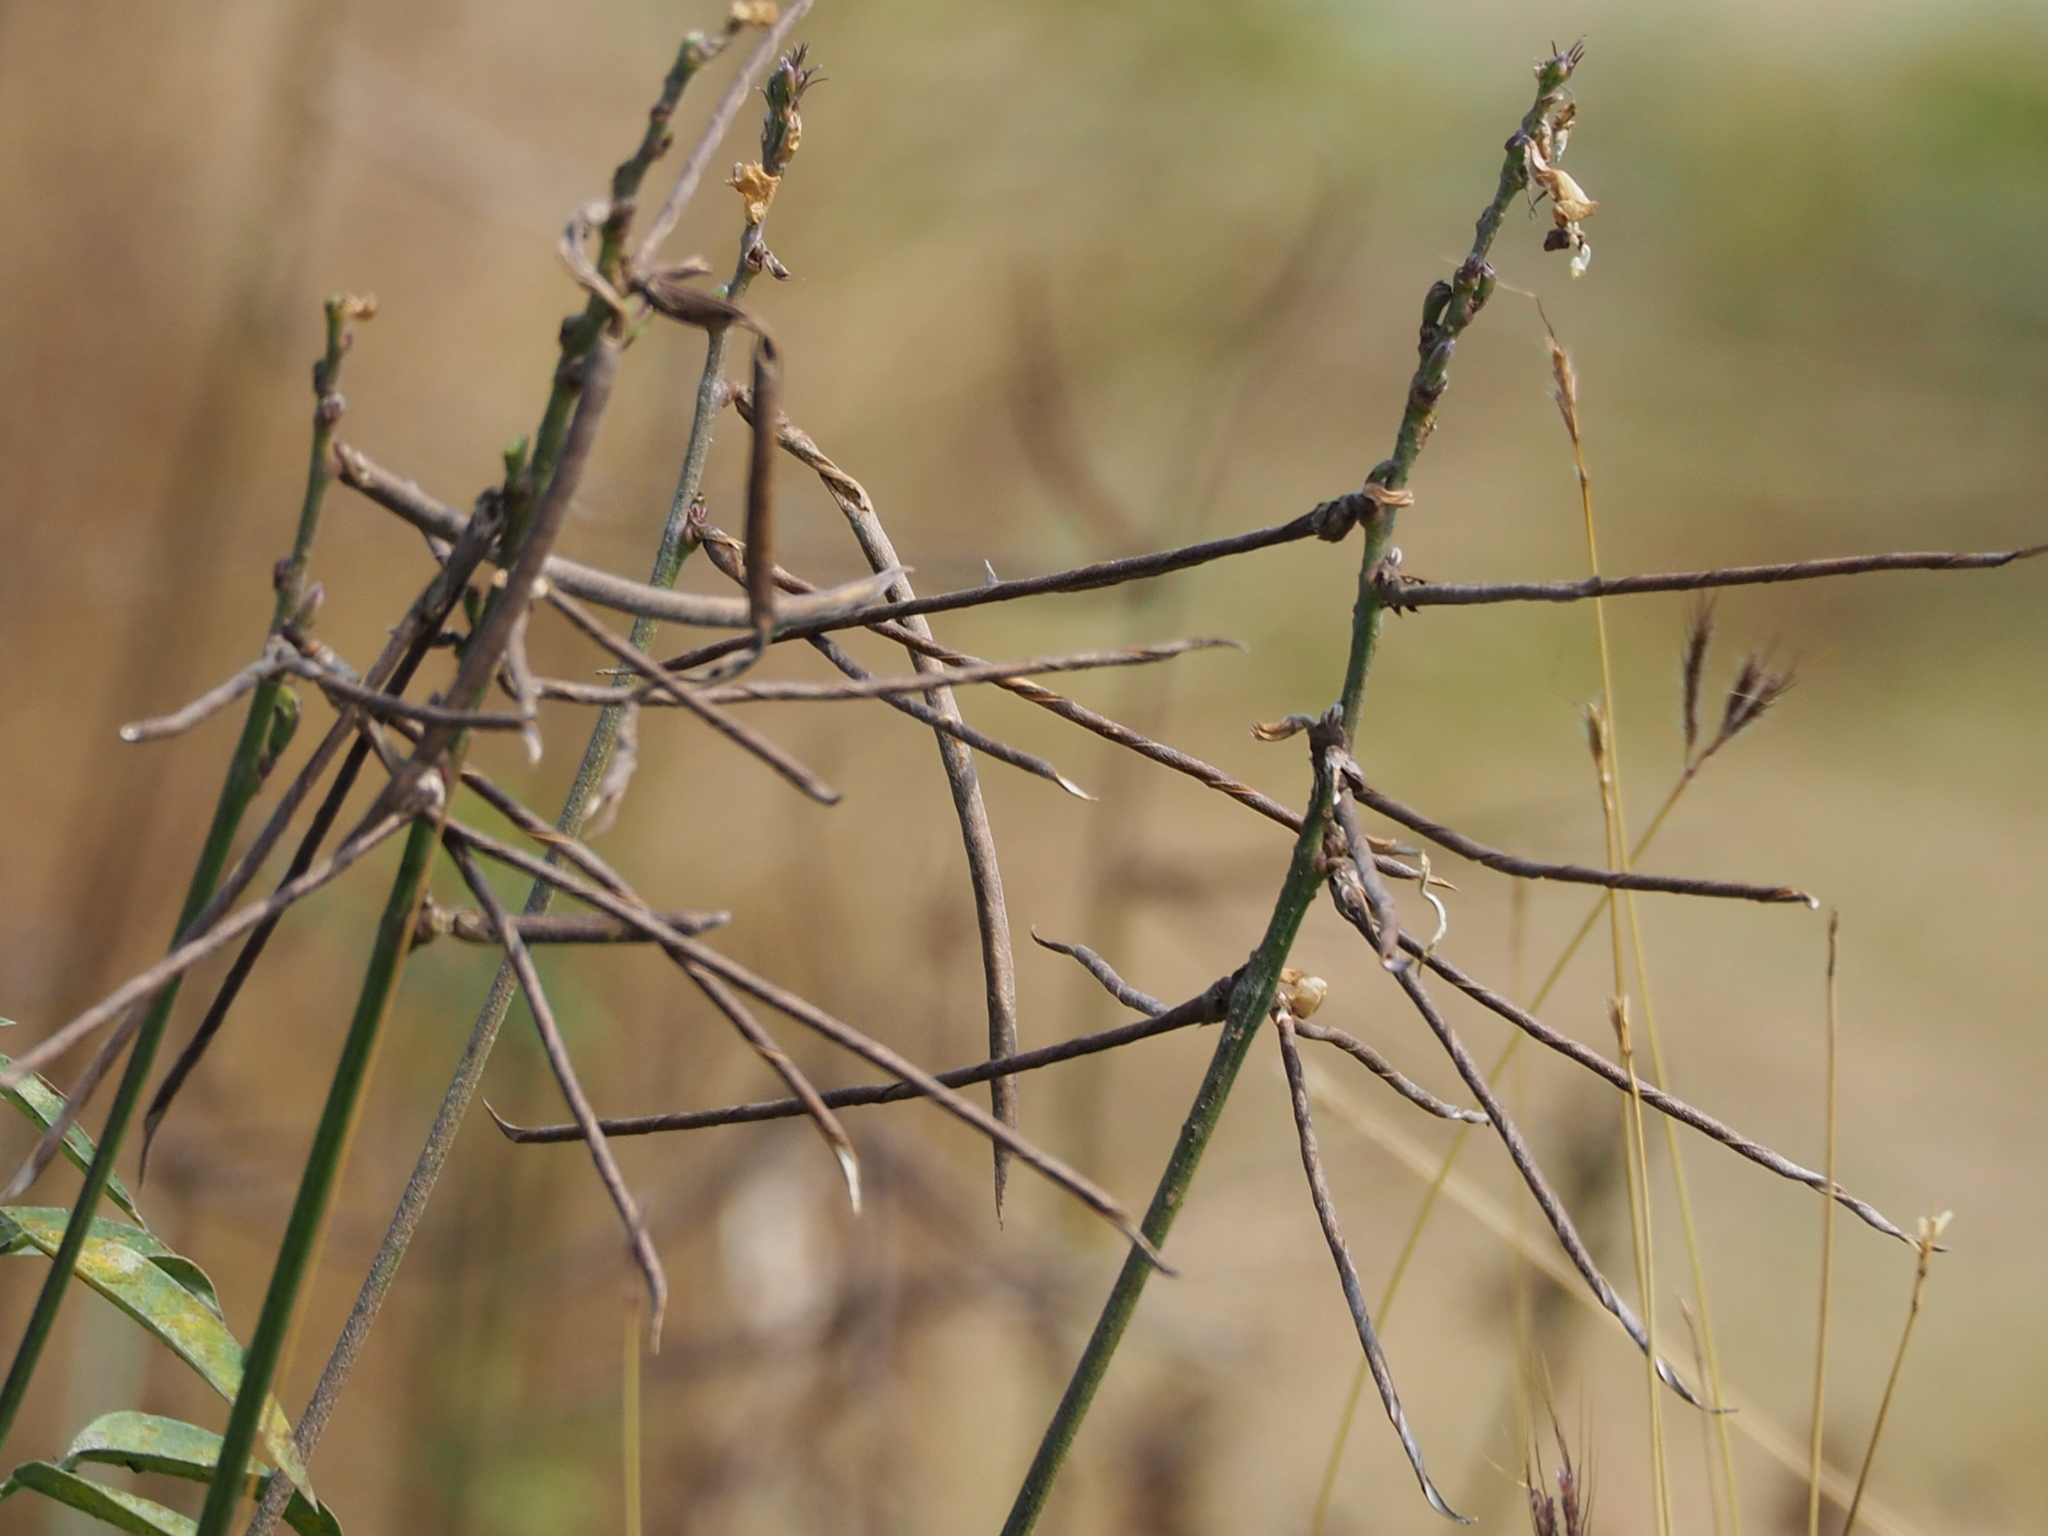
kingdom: Plantae
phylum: Tracheophyta
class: Magnoliopsida
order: Fabales
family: Fabaceae
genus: Macroptilium
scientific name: Macroptilium lathyroides
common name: Wild bushbean
